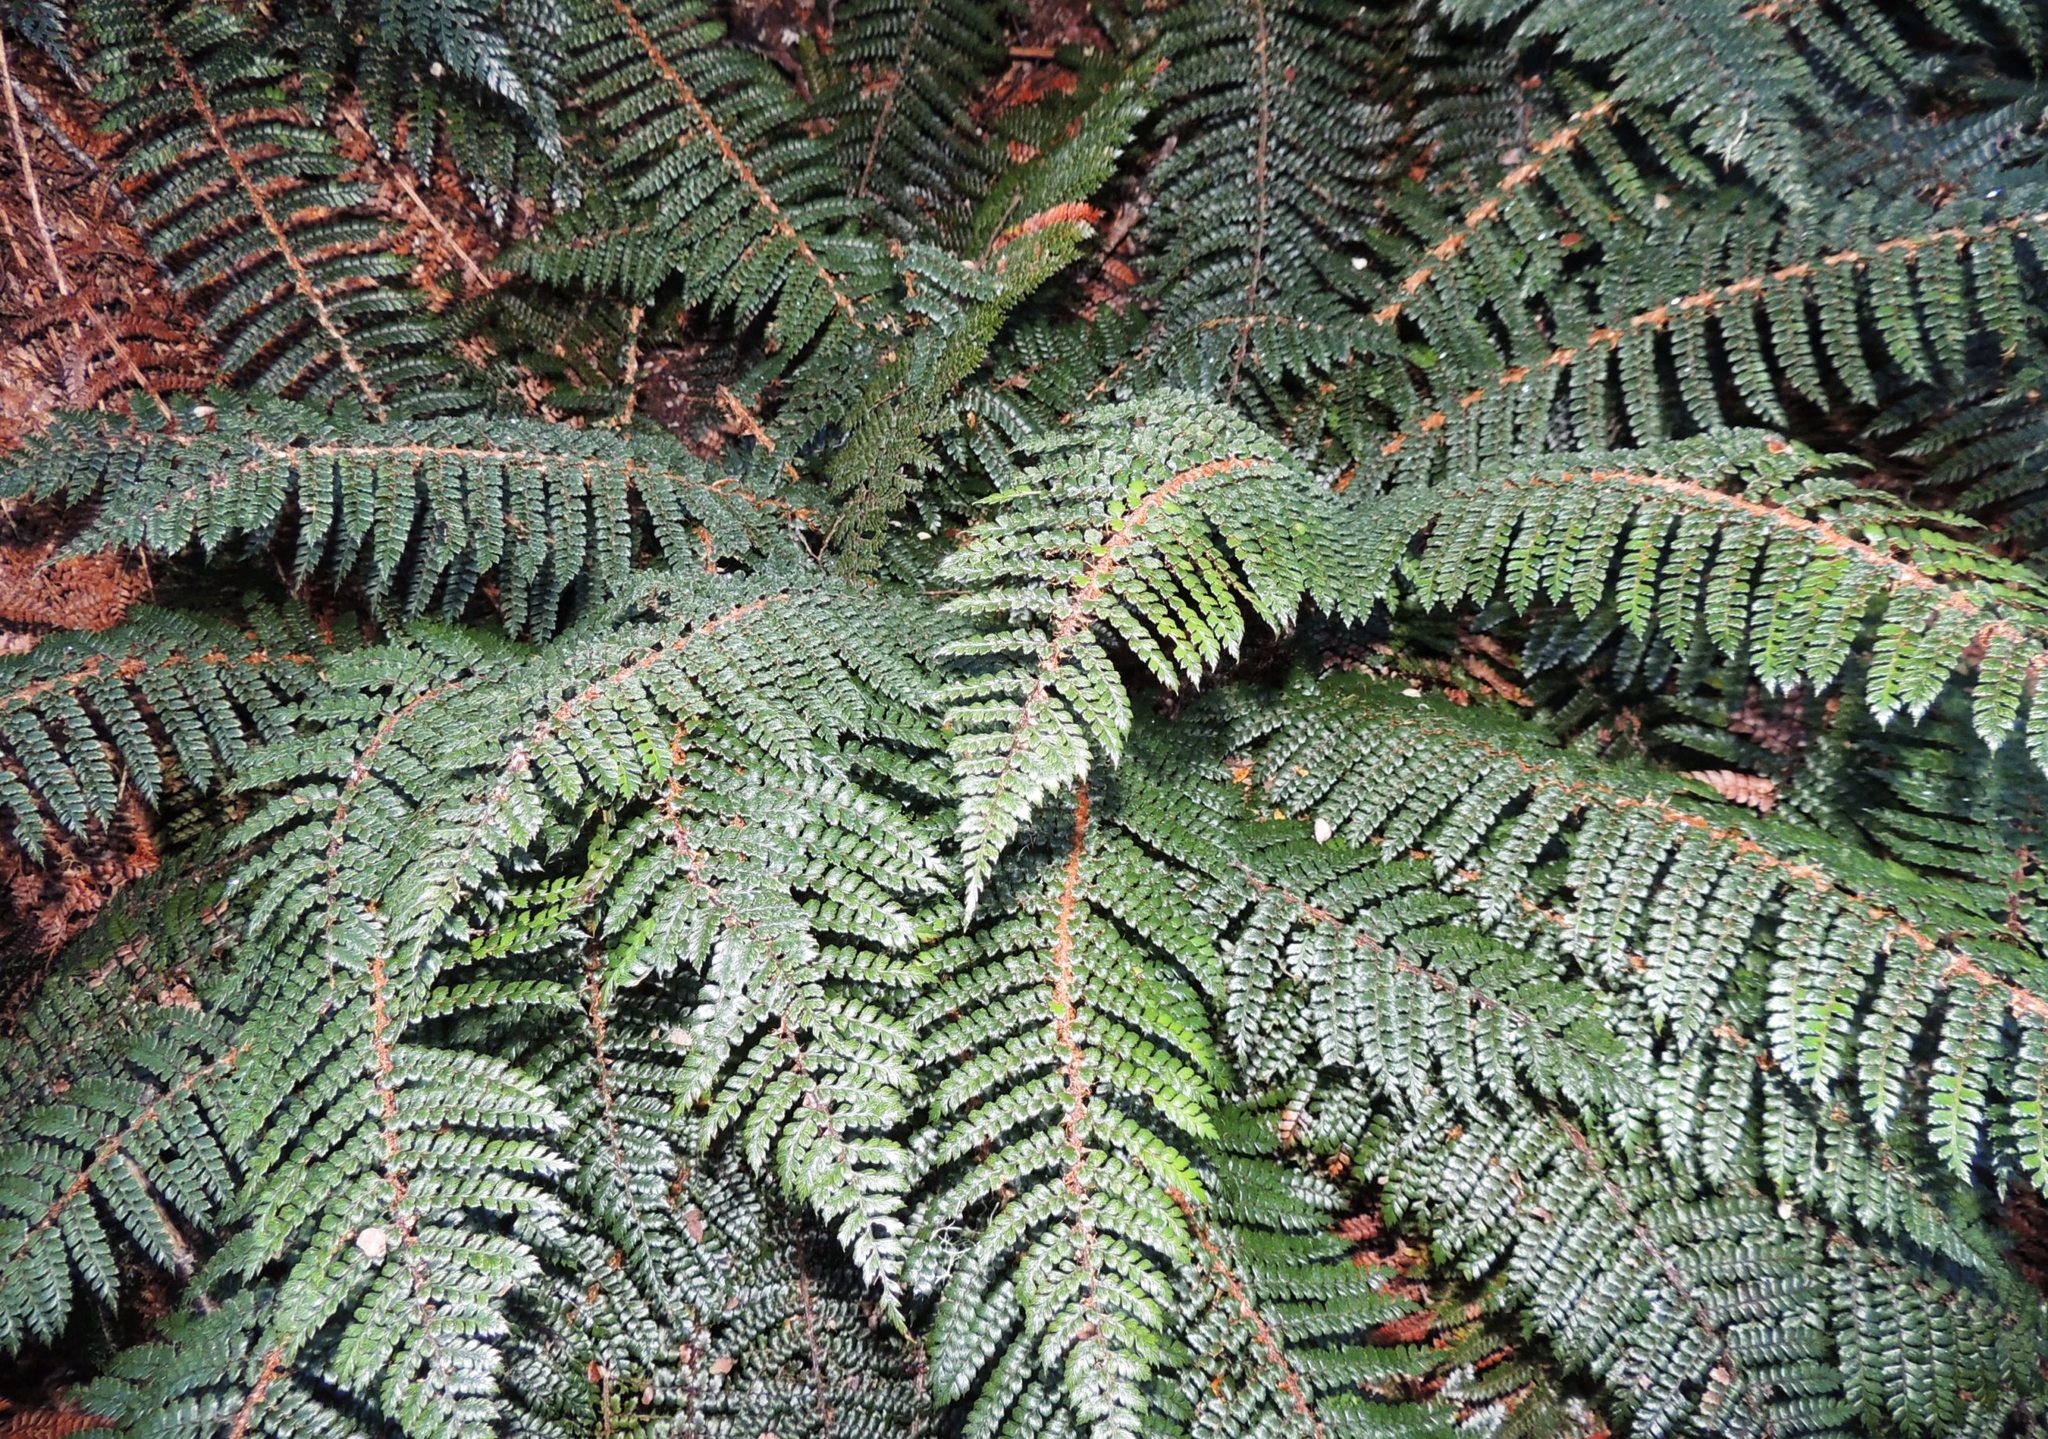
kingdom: Plantae
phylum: Tracheophyta
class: Polypodiopsida
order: Polypodiales
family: Dryopteridaceae
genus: Polystichum
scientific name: Polystichum vestitum
